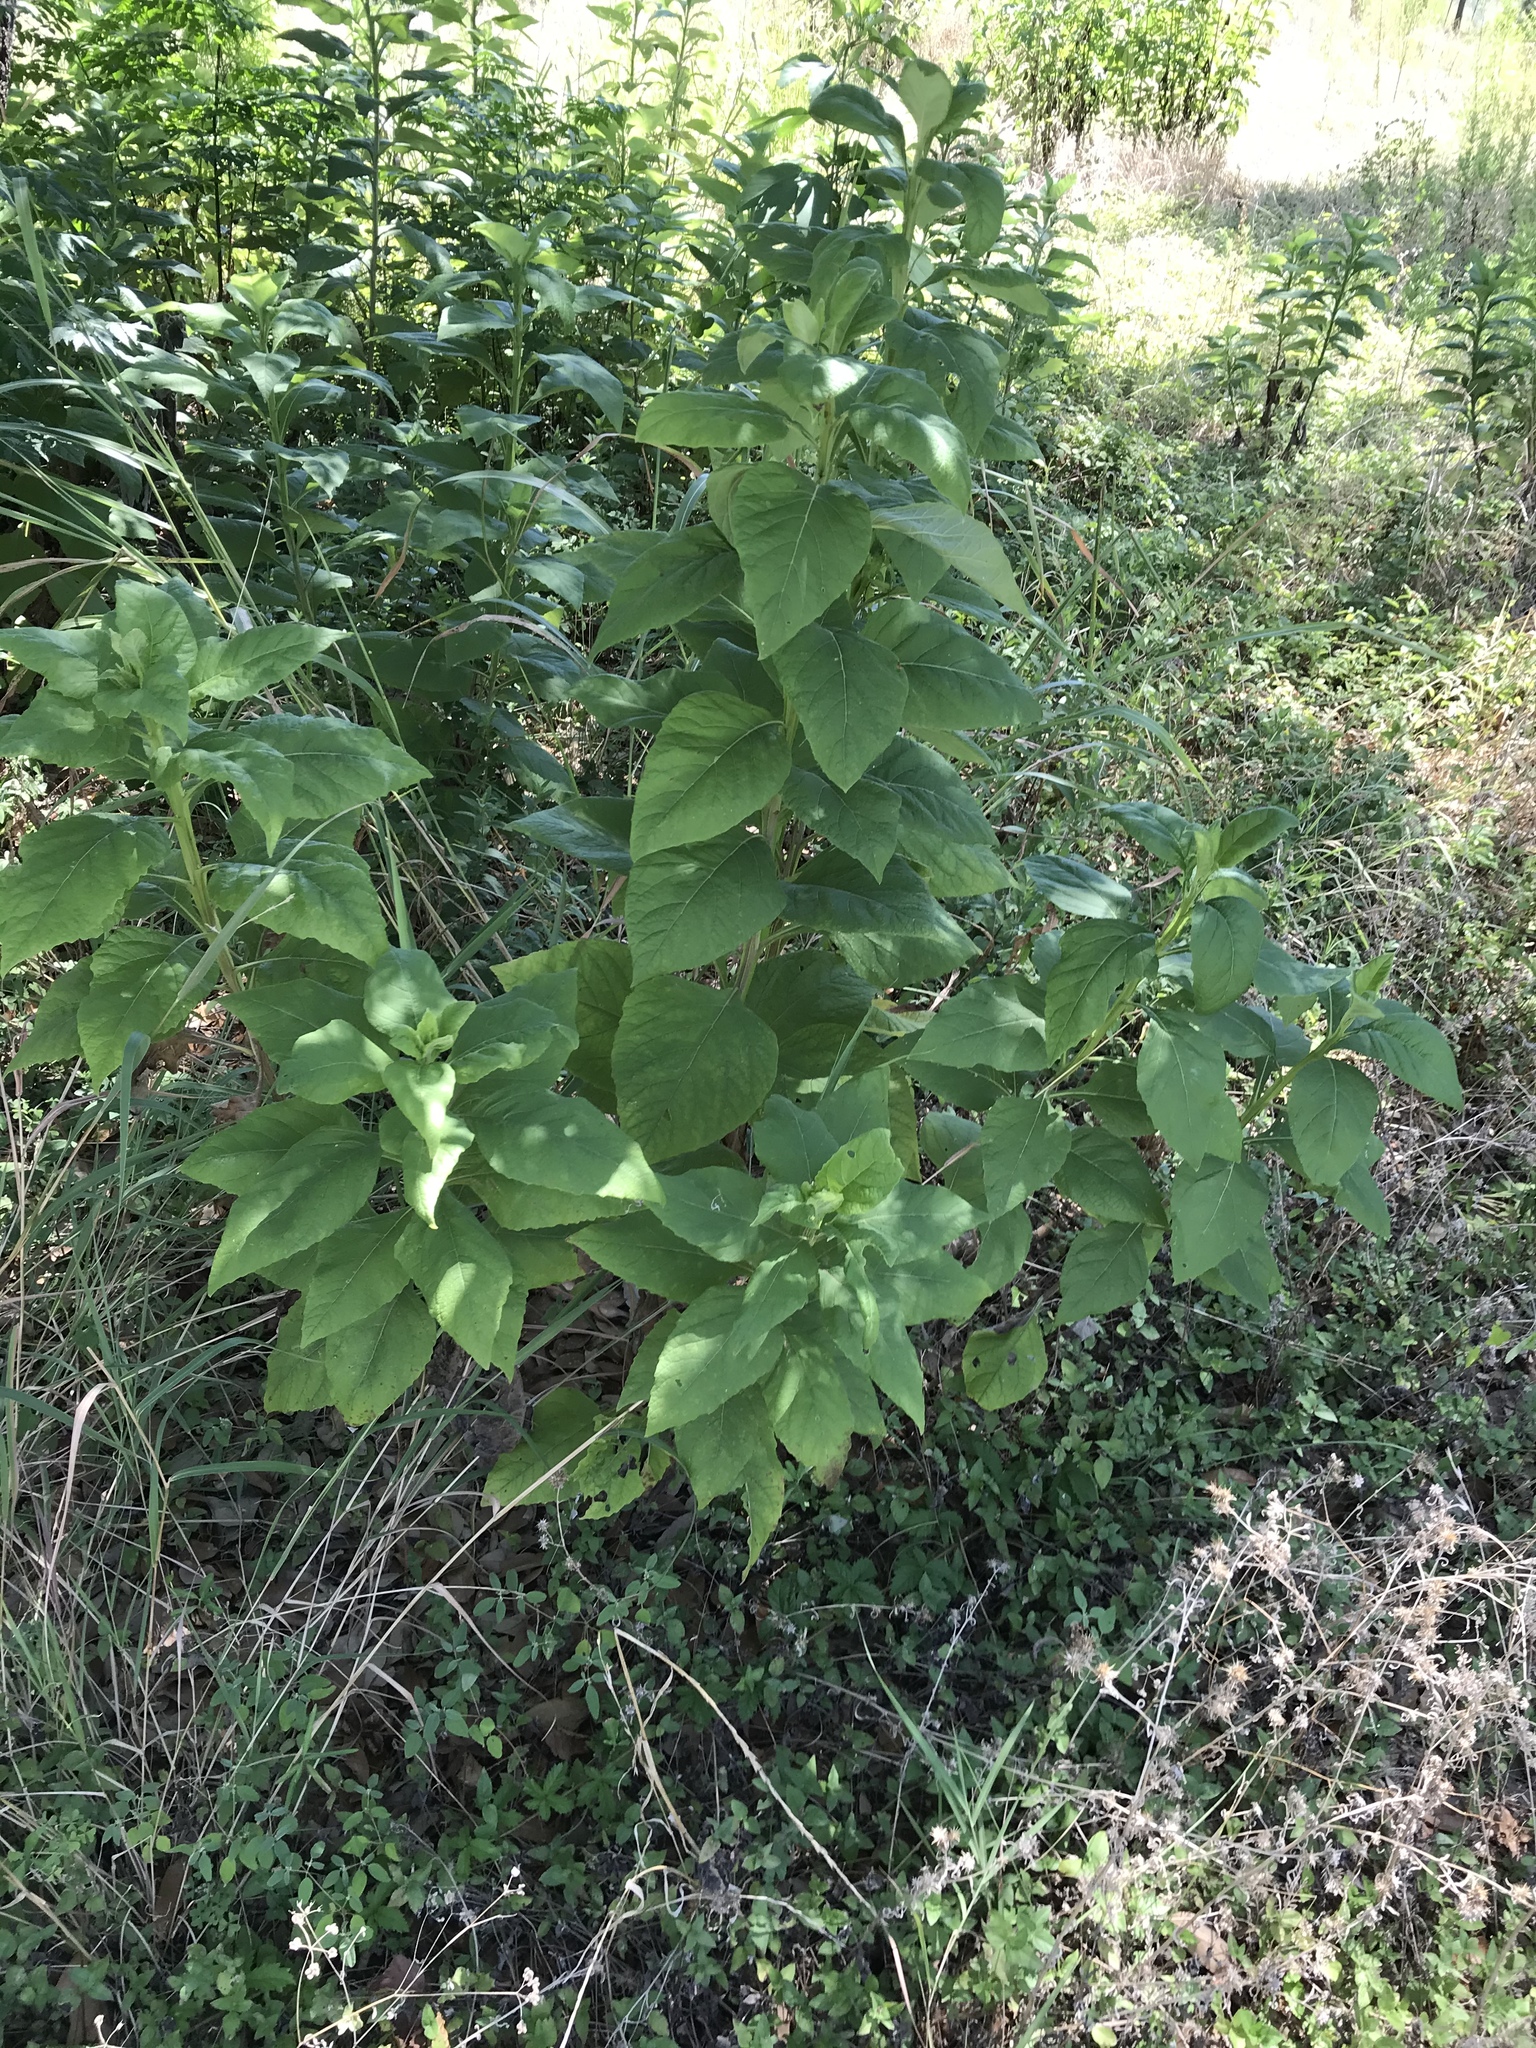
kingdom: Plantae
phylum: Tracheophyta
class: Magnoliopsida
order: Asterales
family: Asteraceae
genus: Verbesina
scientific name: Verbesina virginica
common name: Frostweed
